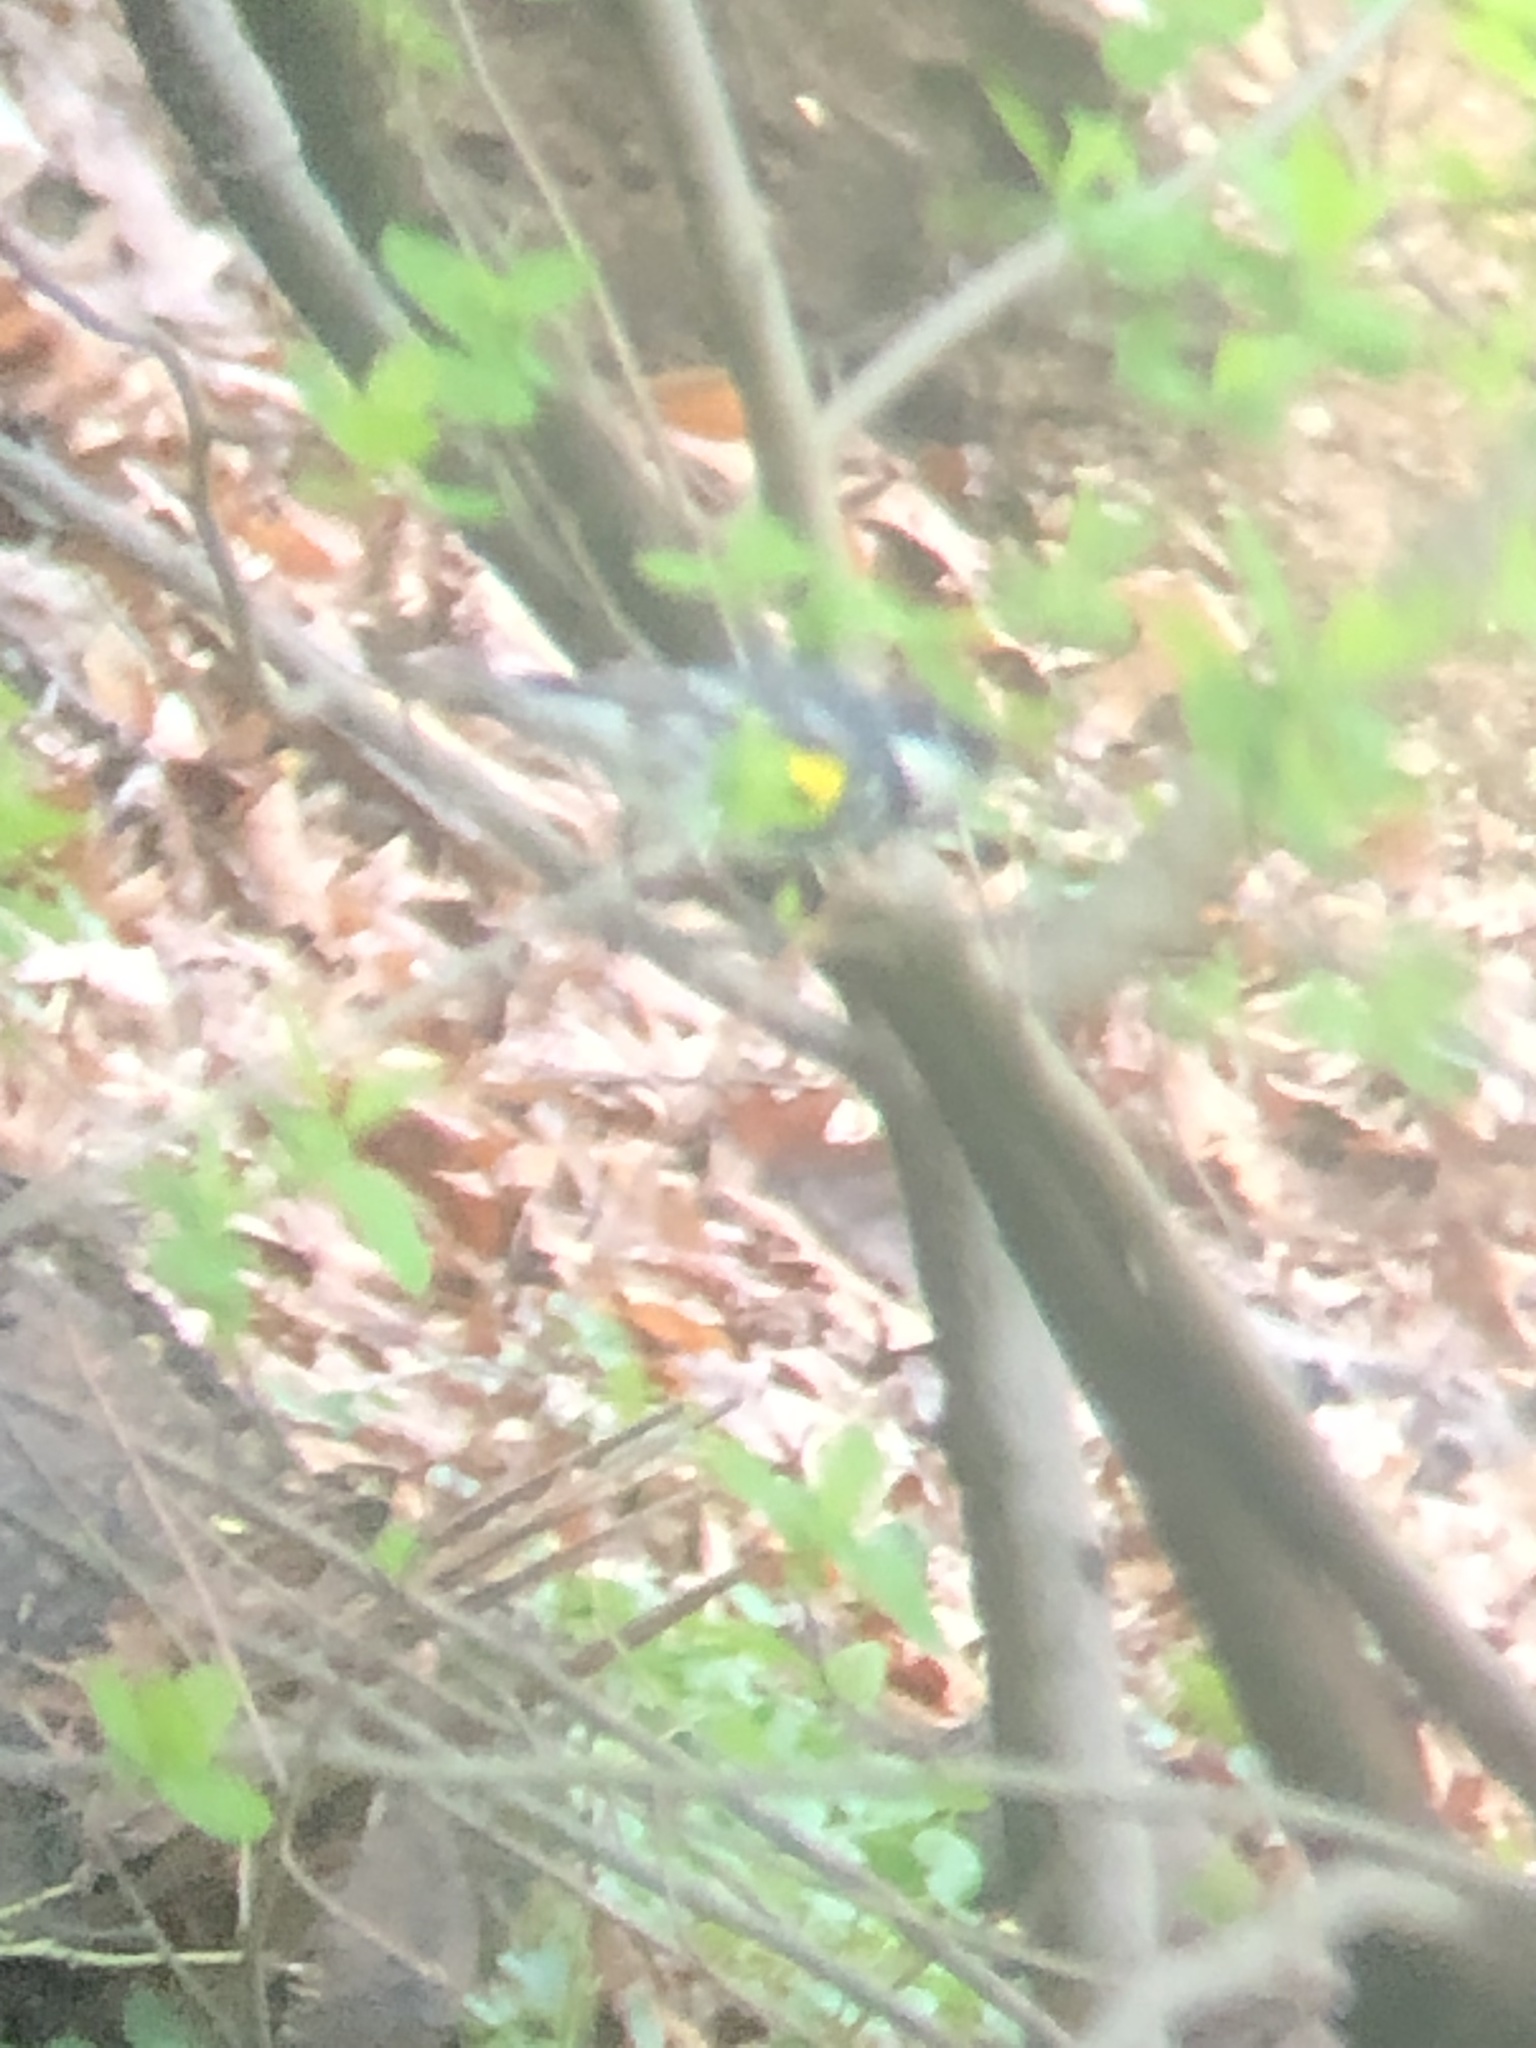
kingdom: Animalia
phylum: Chordata
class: Aves
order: Passeriformes
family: Parulidae
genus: Setophaga
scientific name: Setophaga coronata
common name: Myrtle warbler
